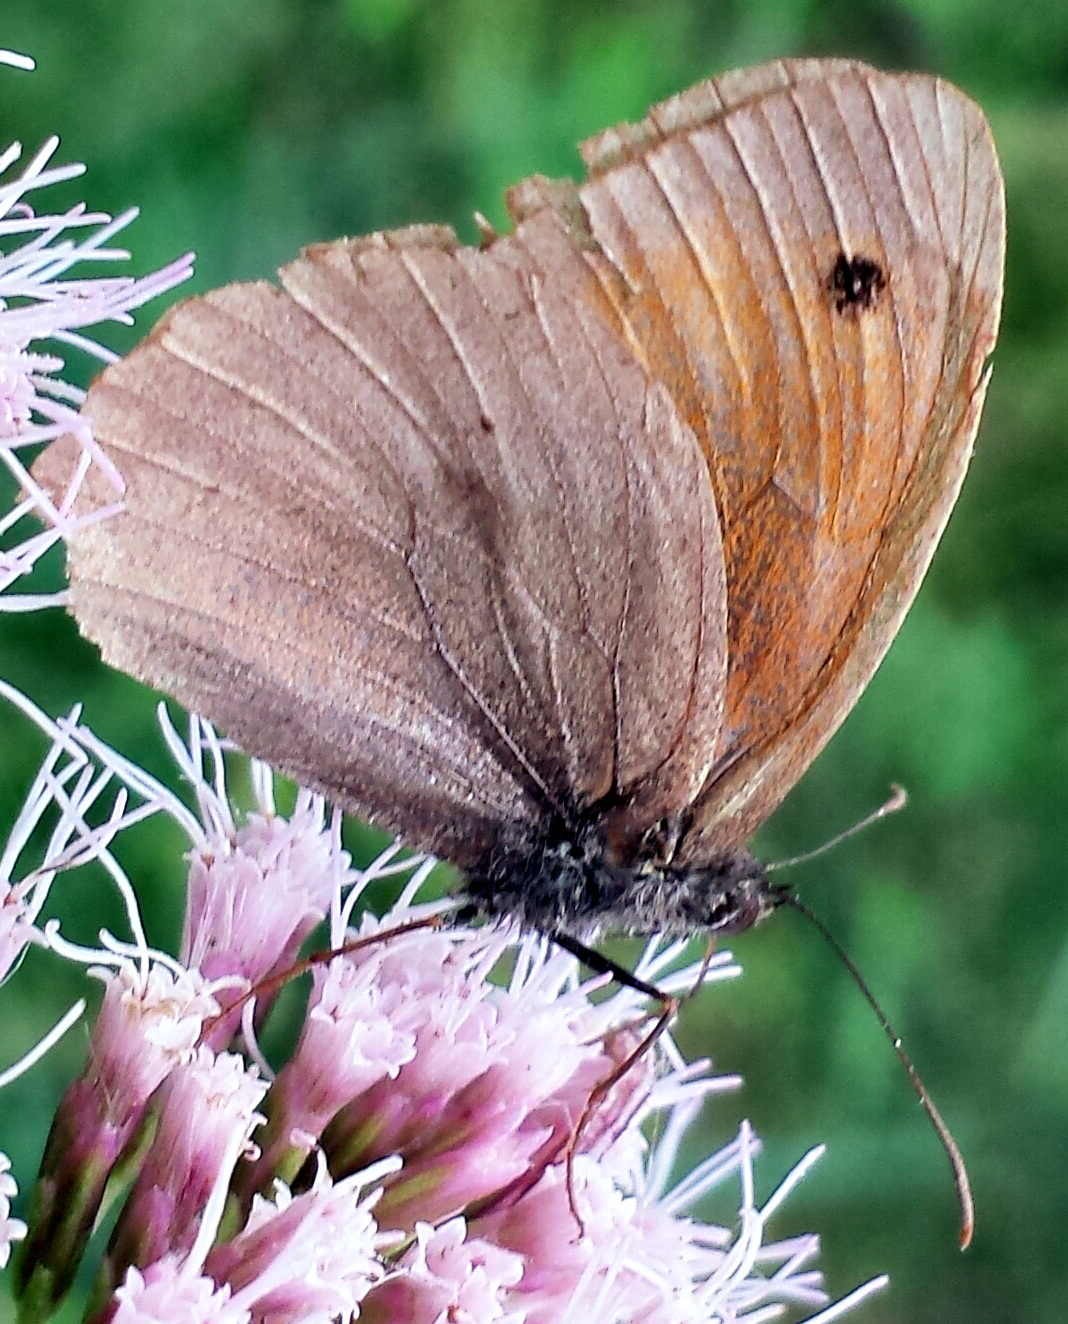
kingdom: Animalia
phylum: Arthropoda
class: Insecta
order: Lepidoptera
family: Nymphalidae
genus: Maniola
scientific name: Maniola jurtina
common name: Meadow brown
